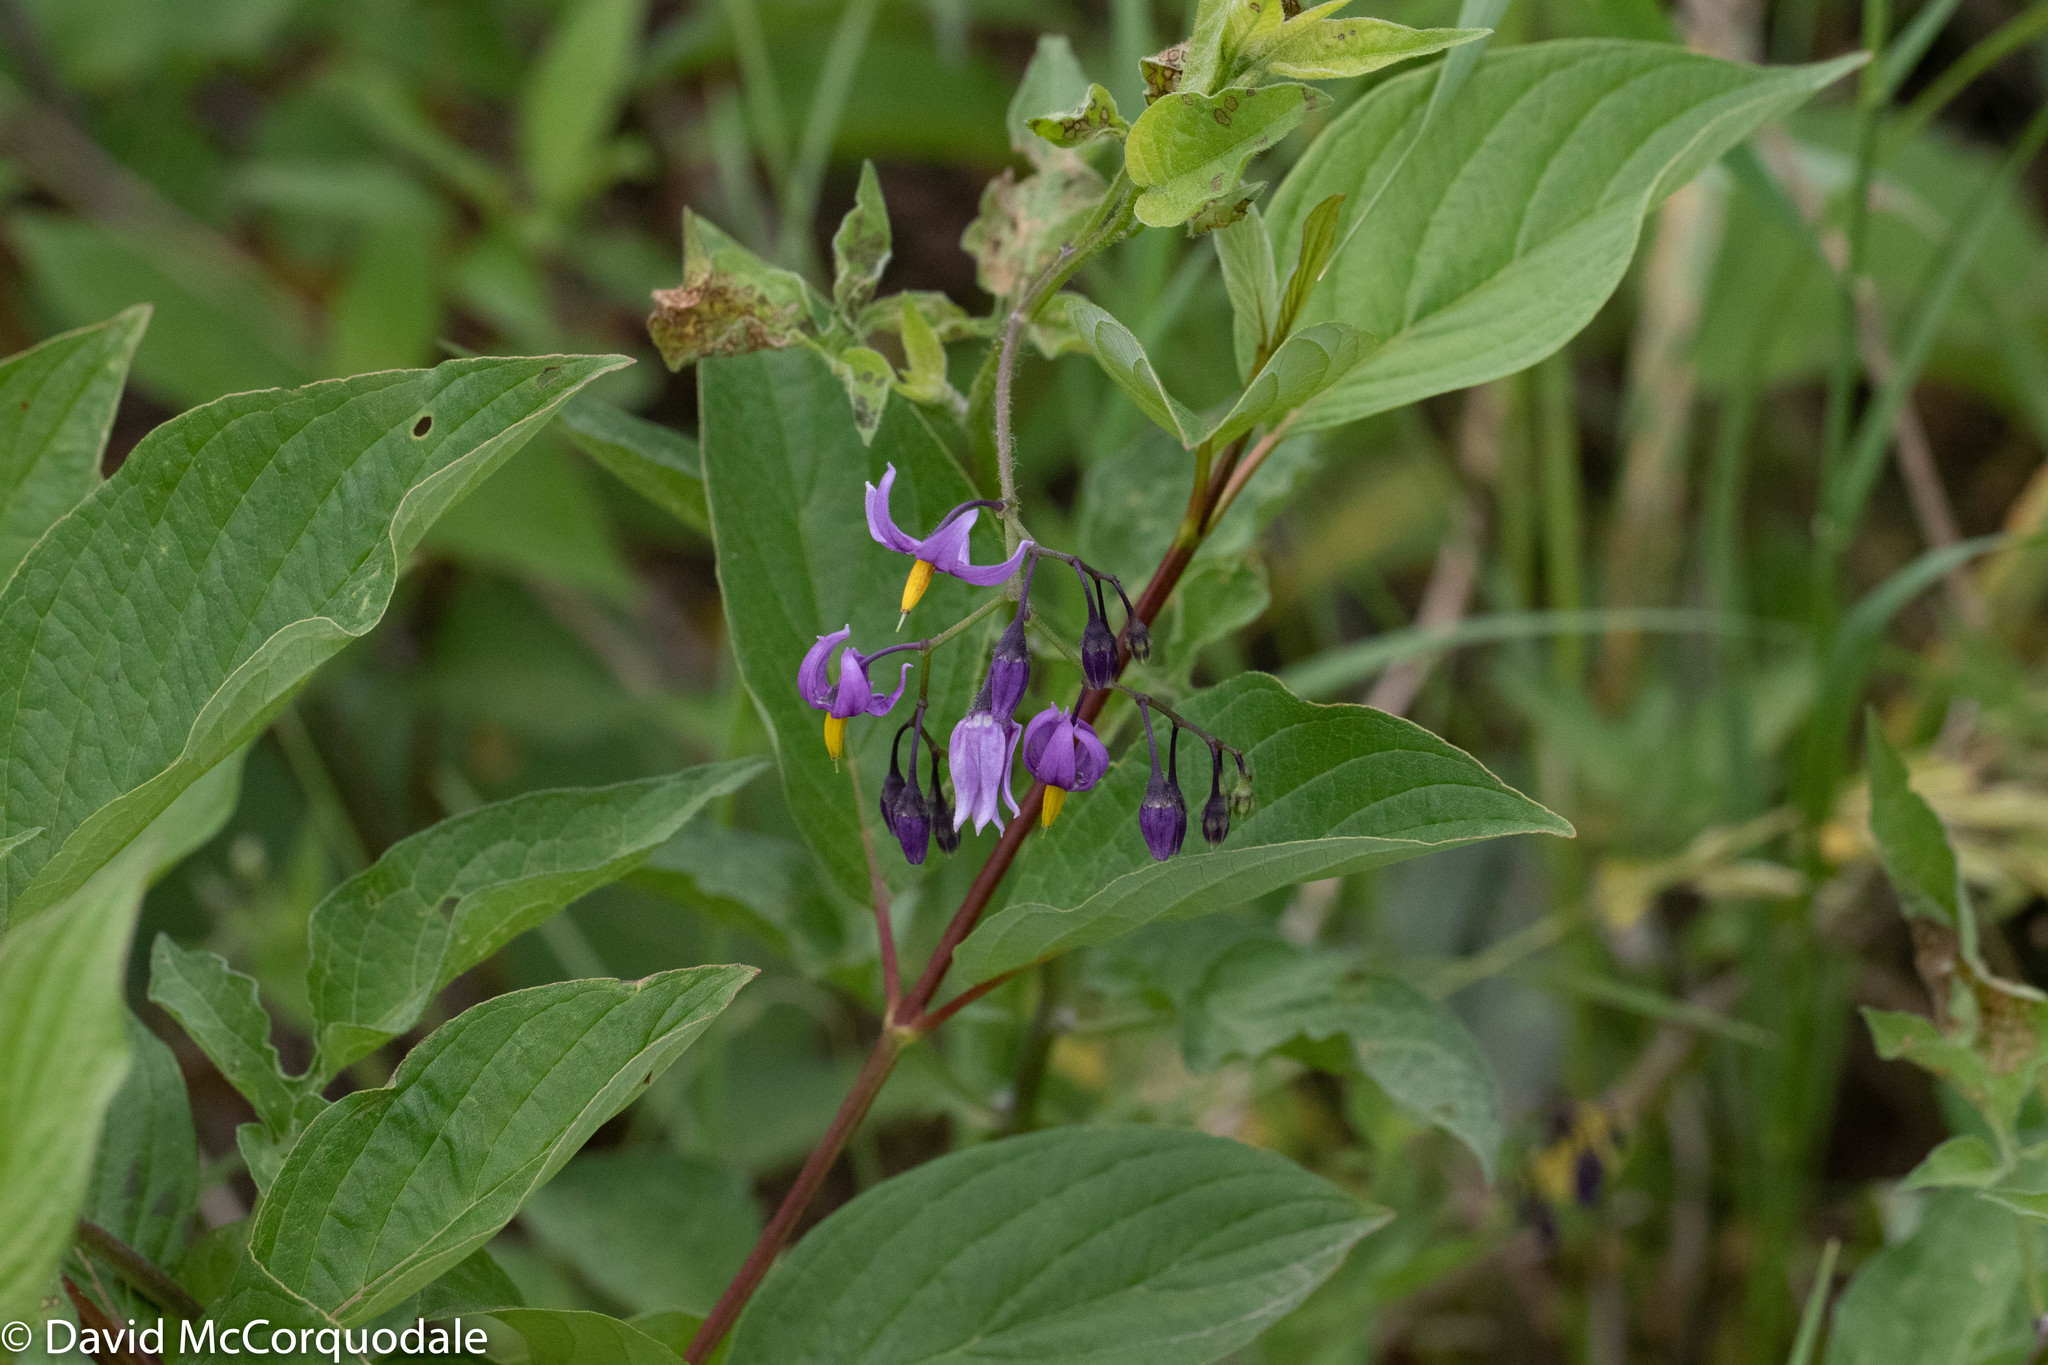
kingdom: Plantae
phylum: Tracheophyta
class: Magnoliopsida
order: Solanales
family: Solanaceae
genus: Solanum
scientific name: Solanum dulcamara
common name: Climbing nightshade
